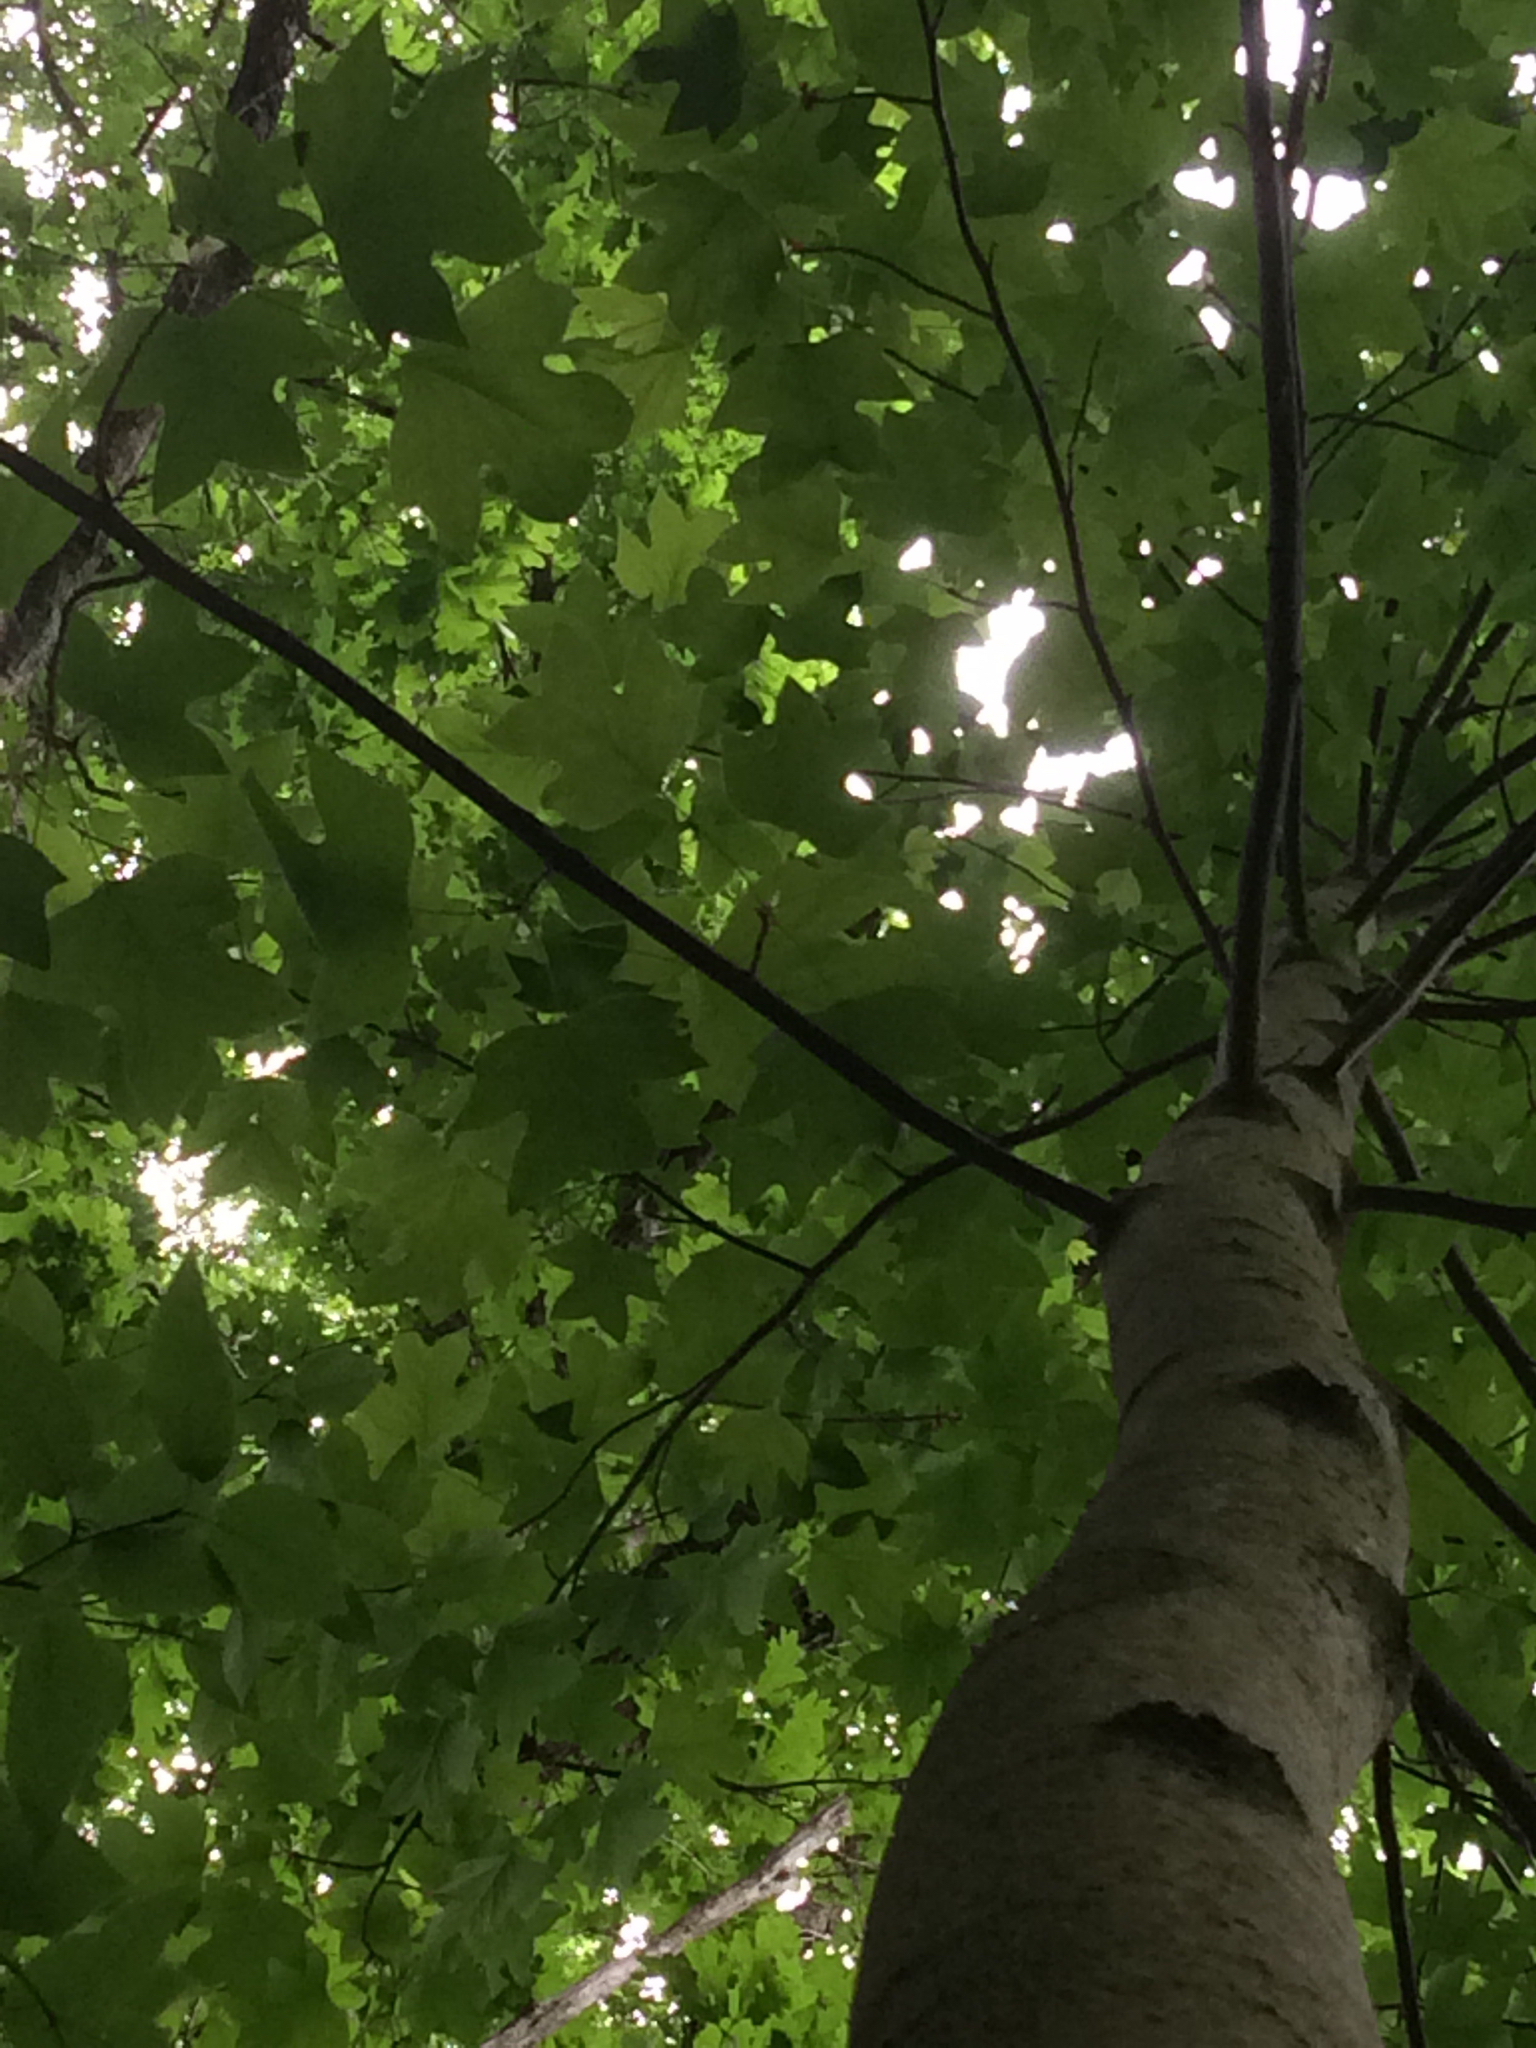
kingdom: Plantae
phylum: Tracheophyta
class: Magnoliopsida
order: Magnoliales
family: Magnoliaceae
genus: Liriodendron
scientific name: Liriodendron tulipifera
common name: Tulip tree
